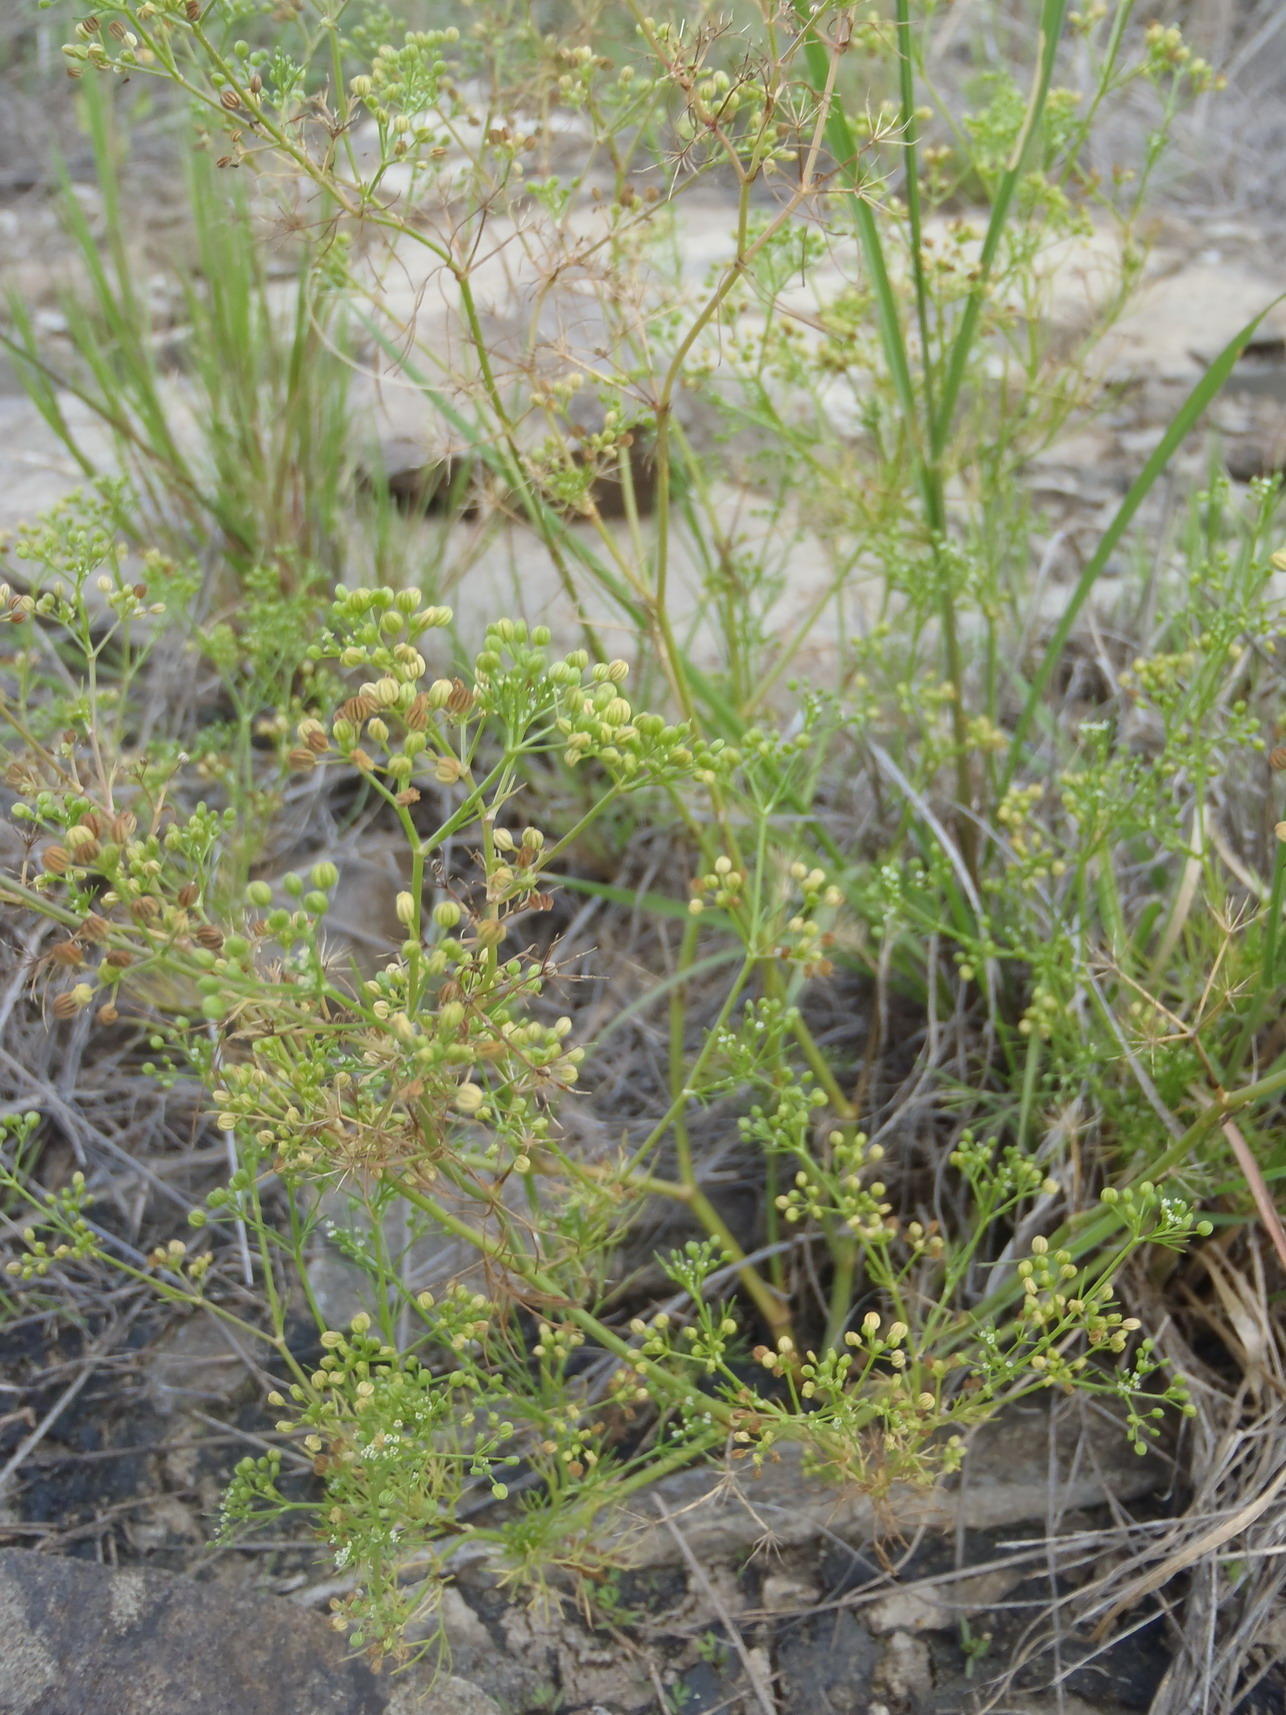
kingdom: Plantae
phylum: Tracheophyta
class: Magnoliopsida
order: Apiales
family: Apiaceae
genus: Cyclospermum
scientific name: Cyclospermum leptophyllum
